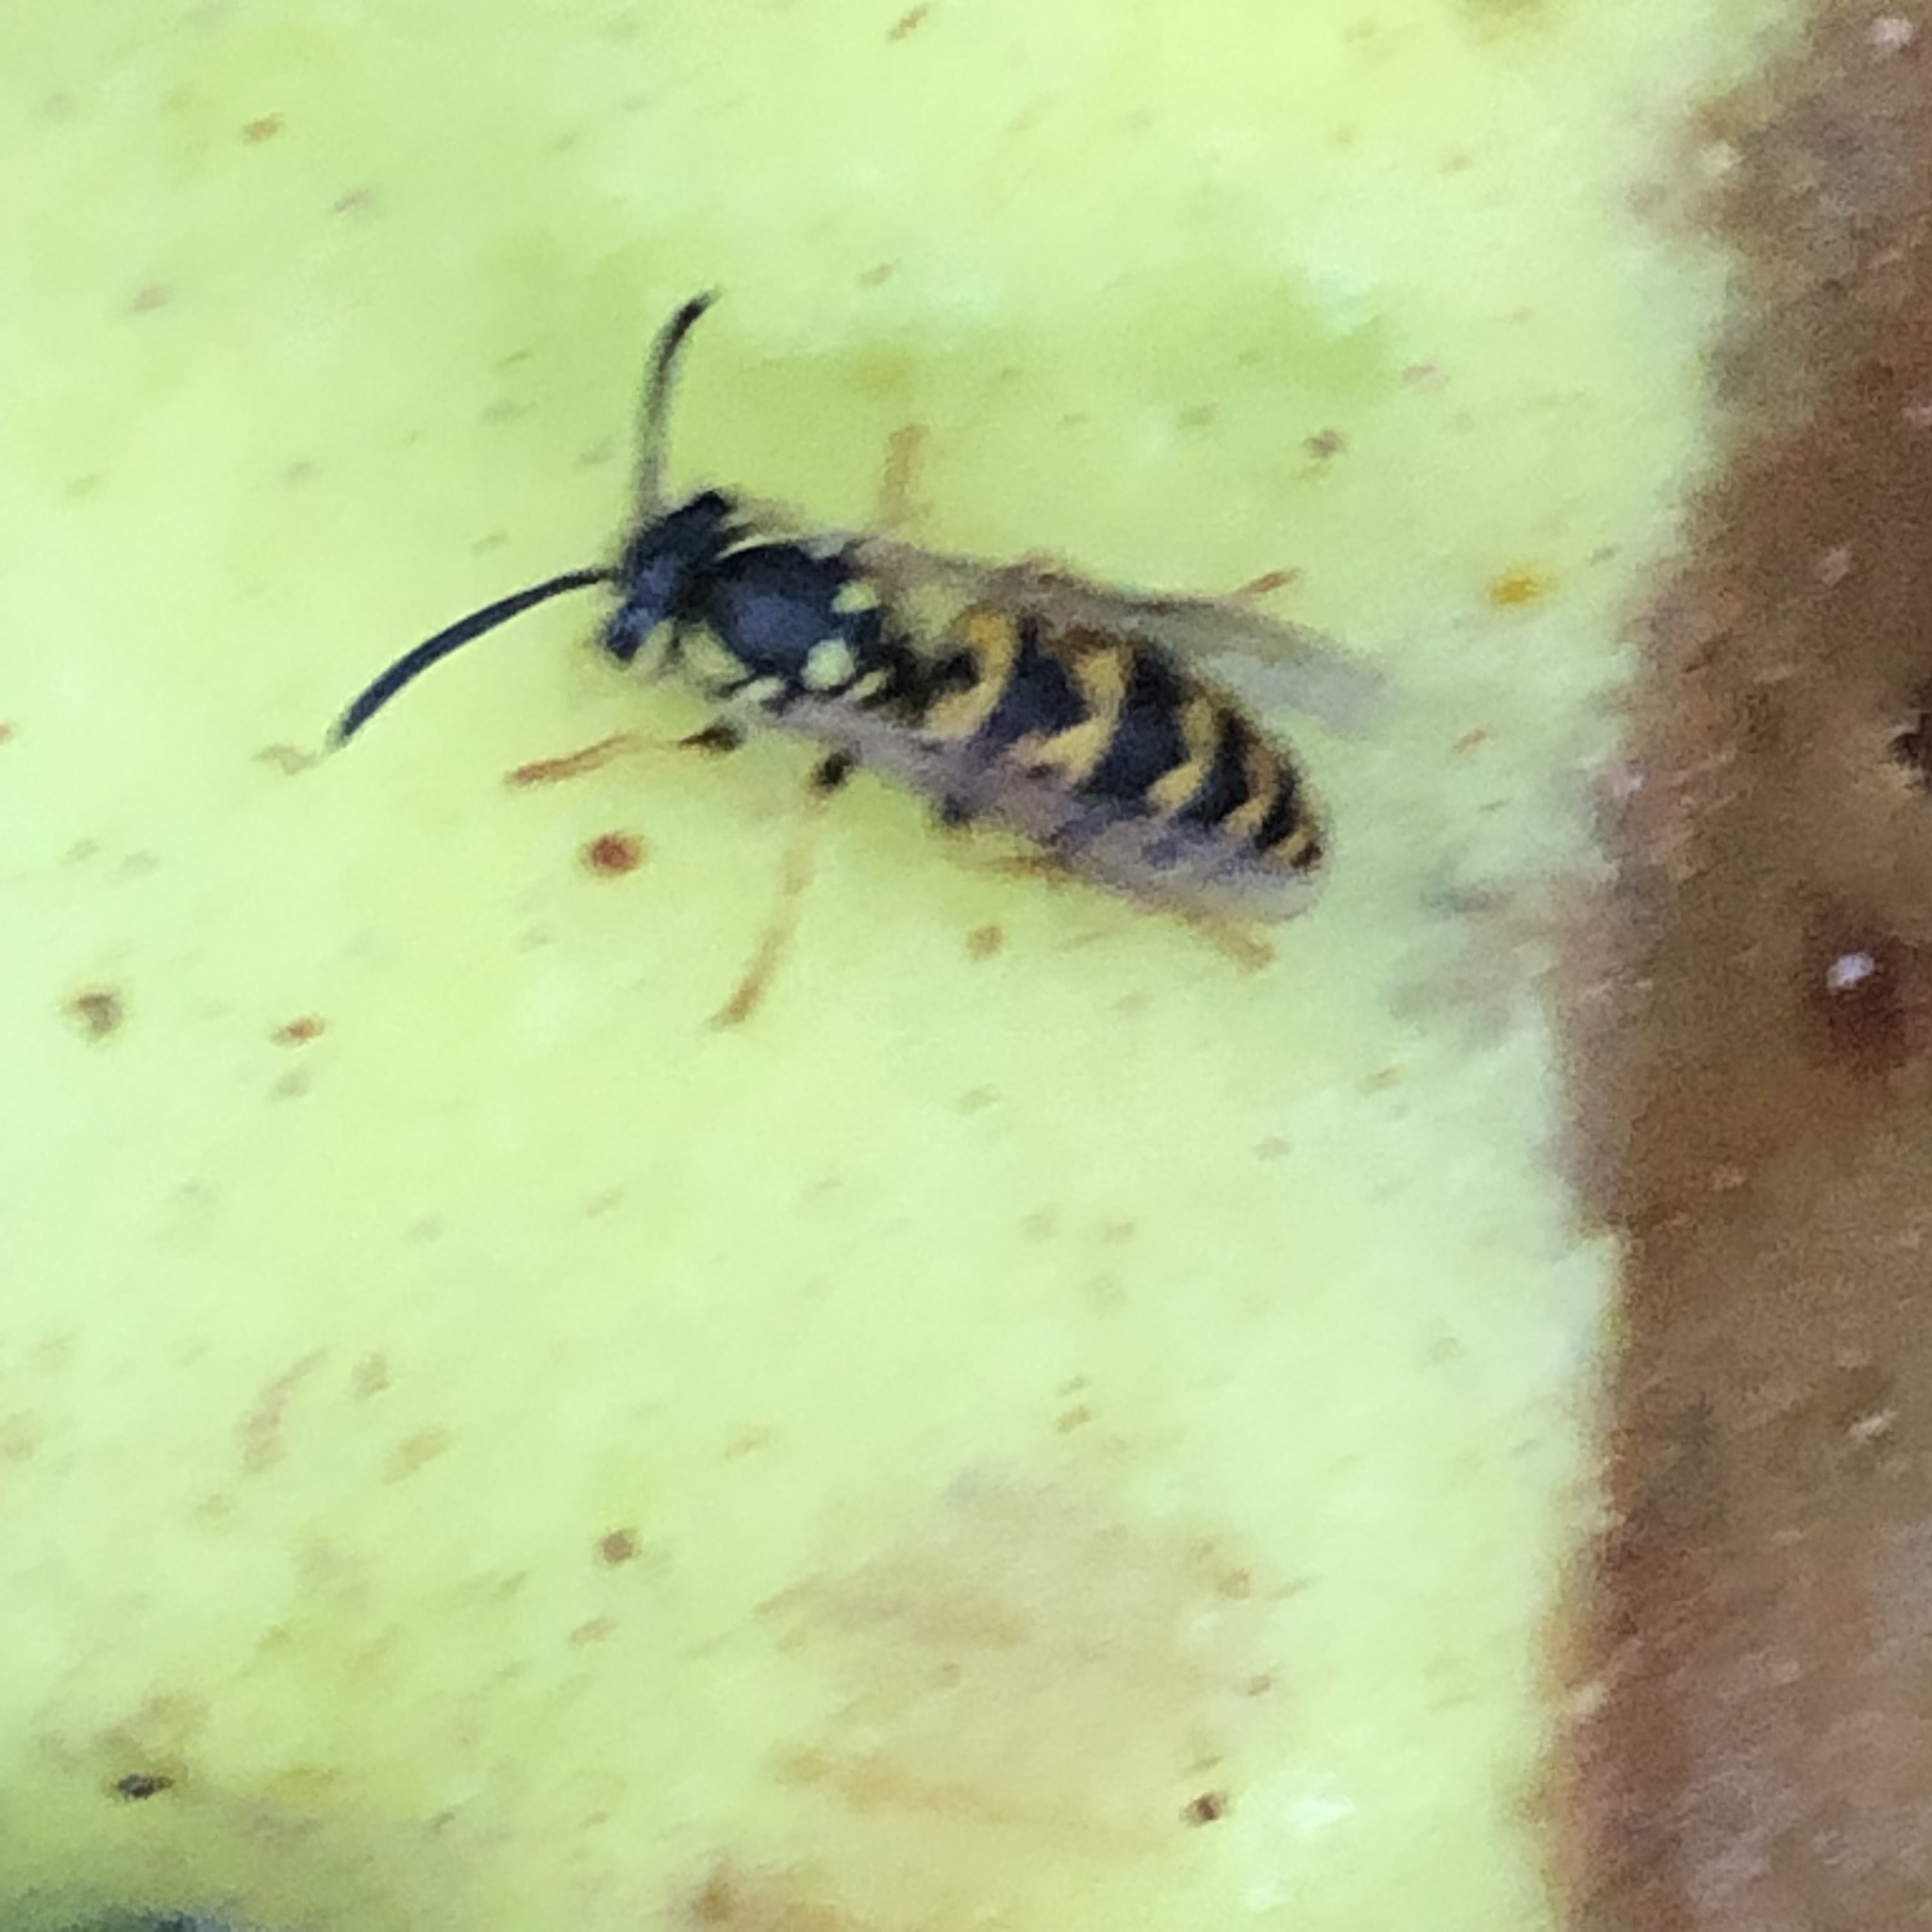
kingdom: Animalia
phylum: Arthropoda
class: Insecta
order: Hymenoptera
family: Vespidae
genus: Vespula
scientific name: Vespula germanica
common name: German wasp
